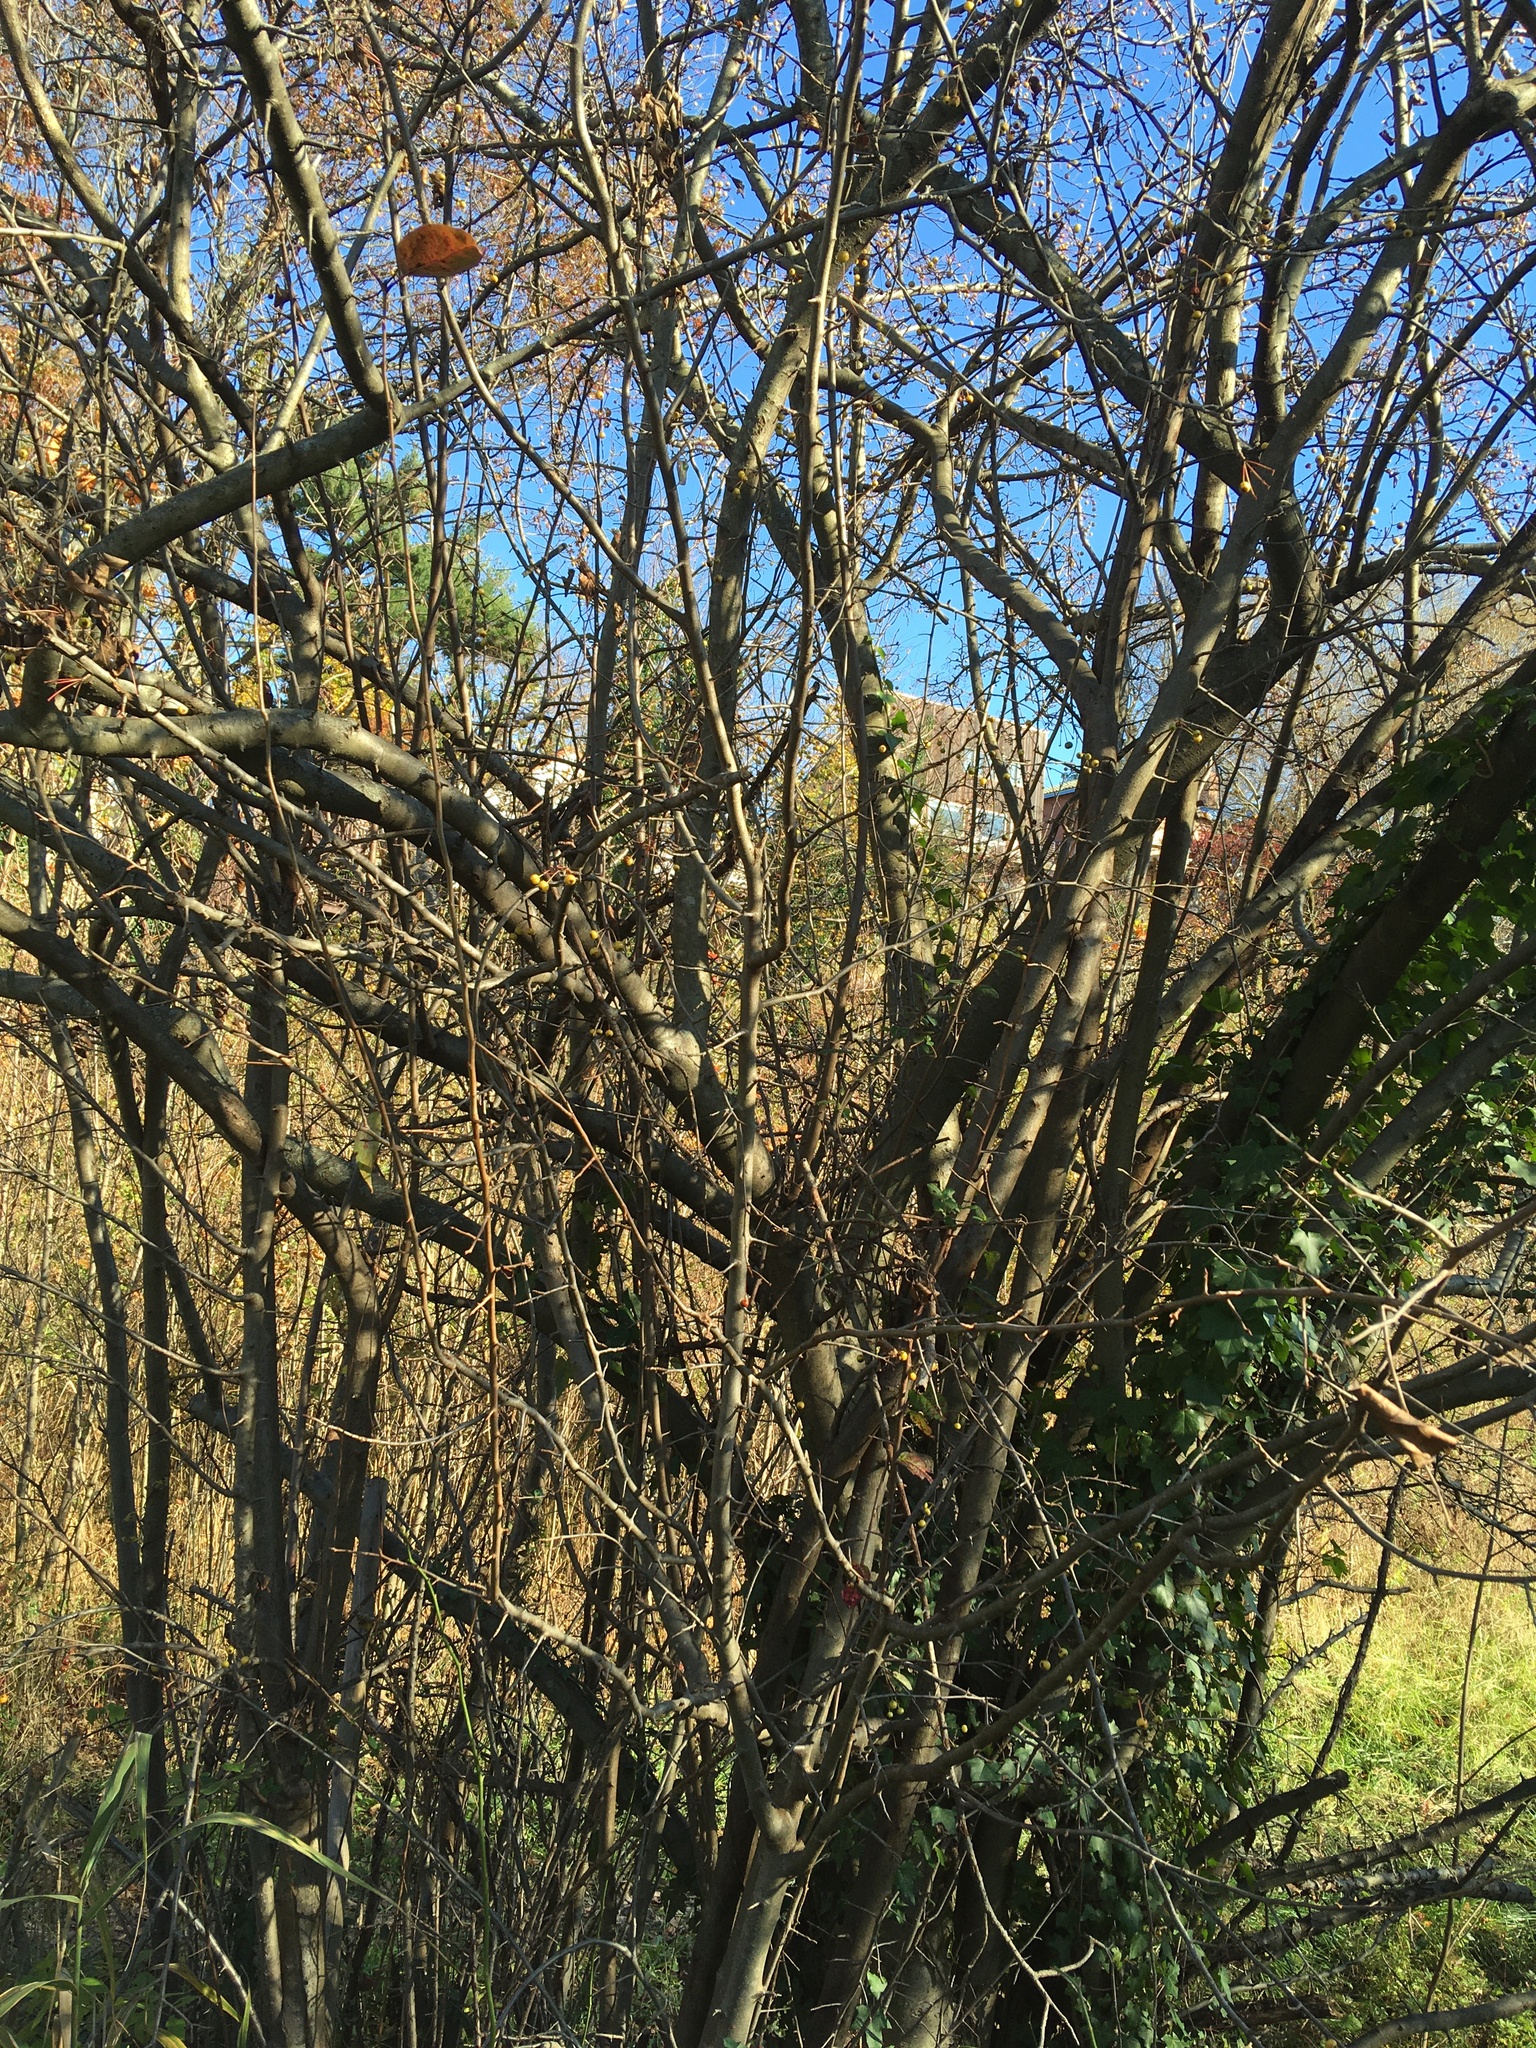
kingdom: Plantae
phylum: Tracheophyta
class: Magnoliopsida
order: Rosales
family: Rosaceae
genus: Malus
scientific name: Malus hupehensis
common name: Chinese crab apple
